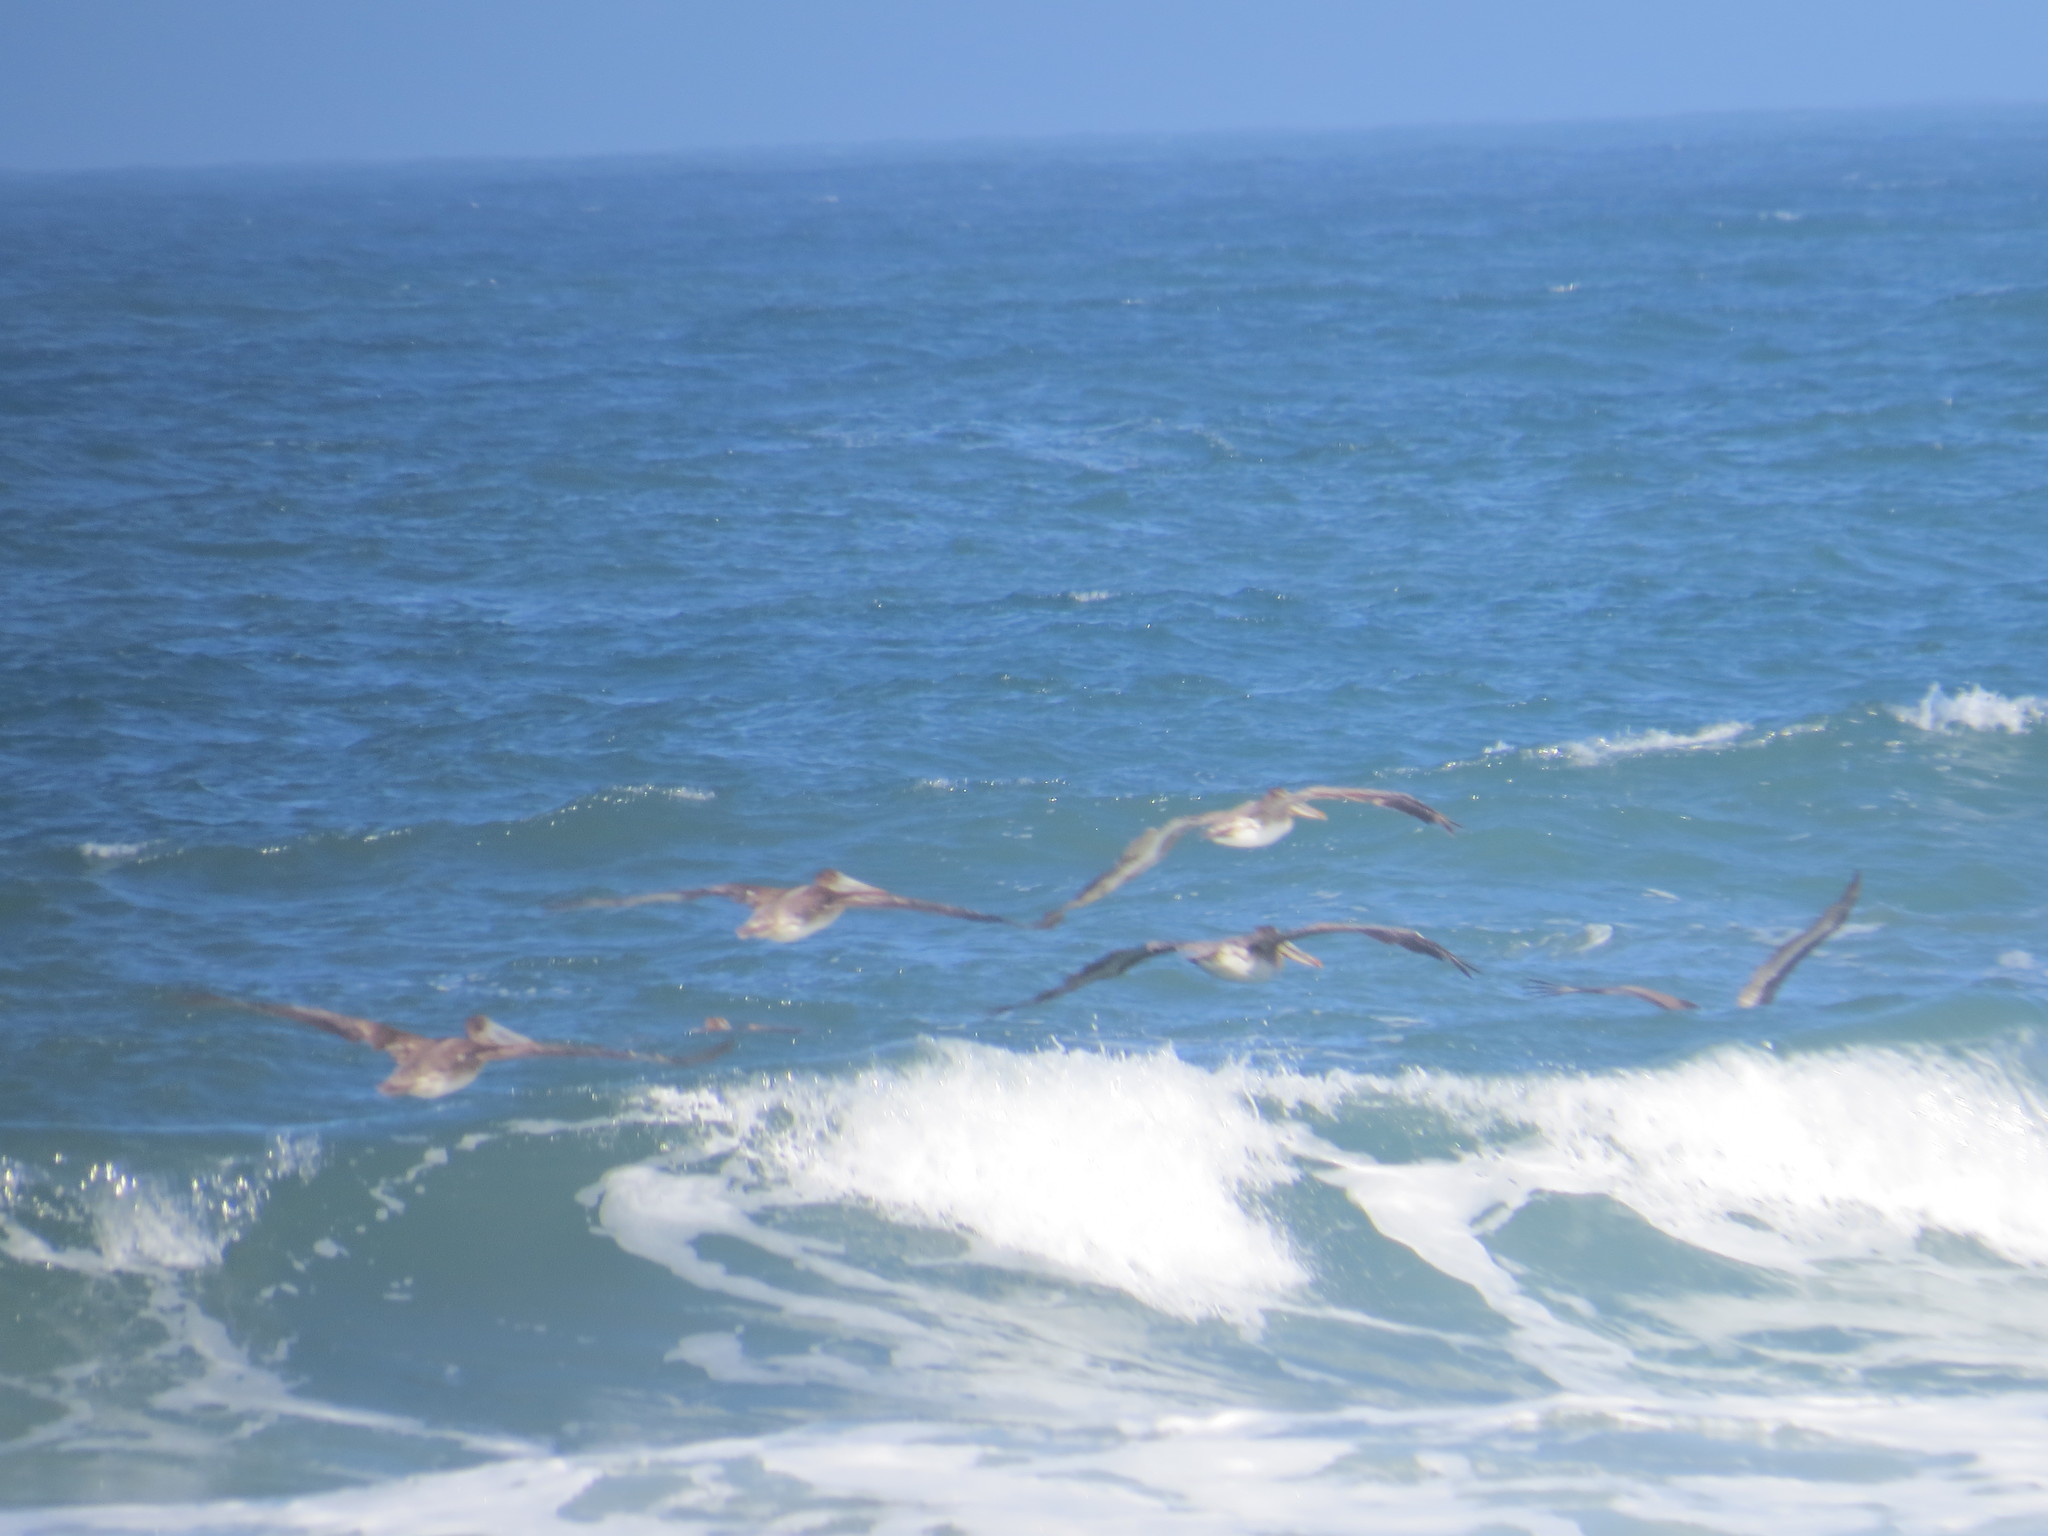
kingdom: Animalia
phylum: Chordata
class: Aves
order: Pelecaniformes
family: Pelecanidae
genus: Pelecanus
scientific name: Pelecanus occidentalis
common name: Brown pelican
